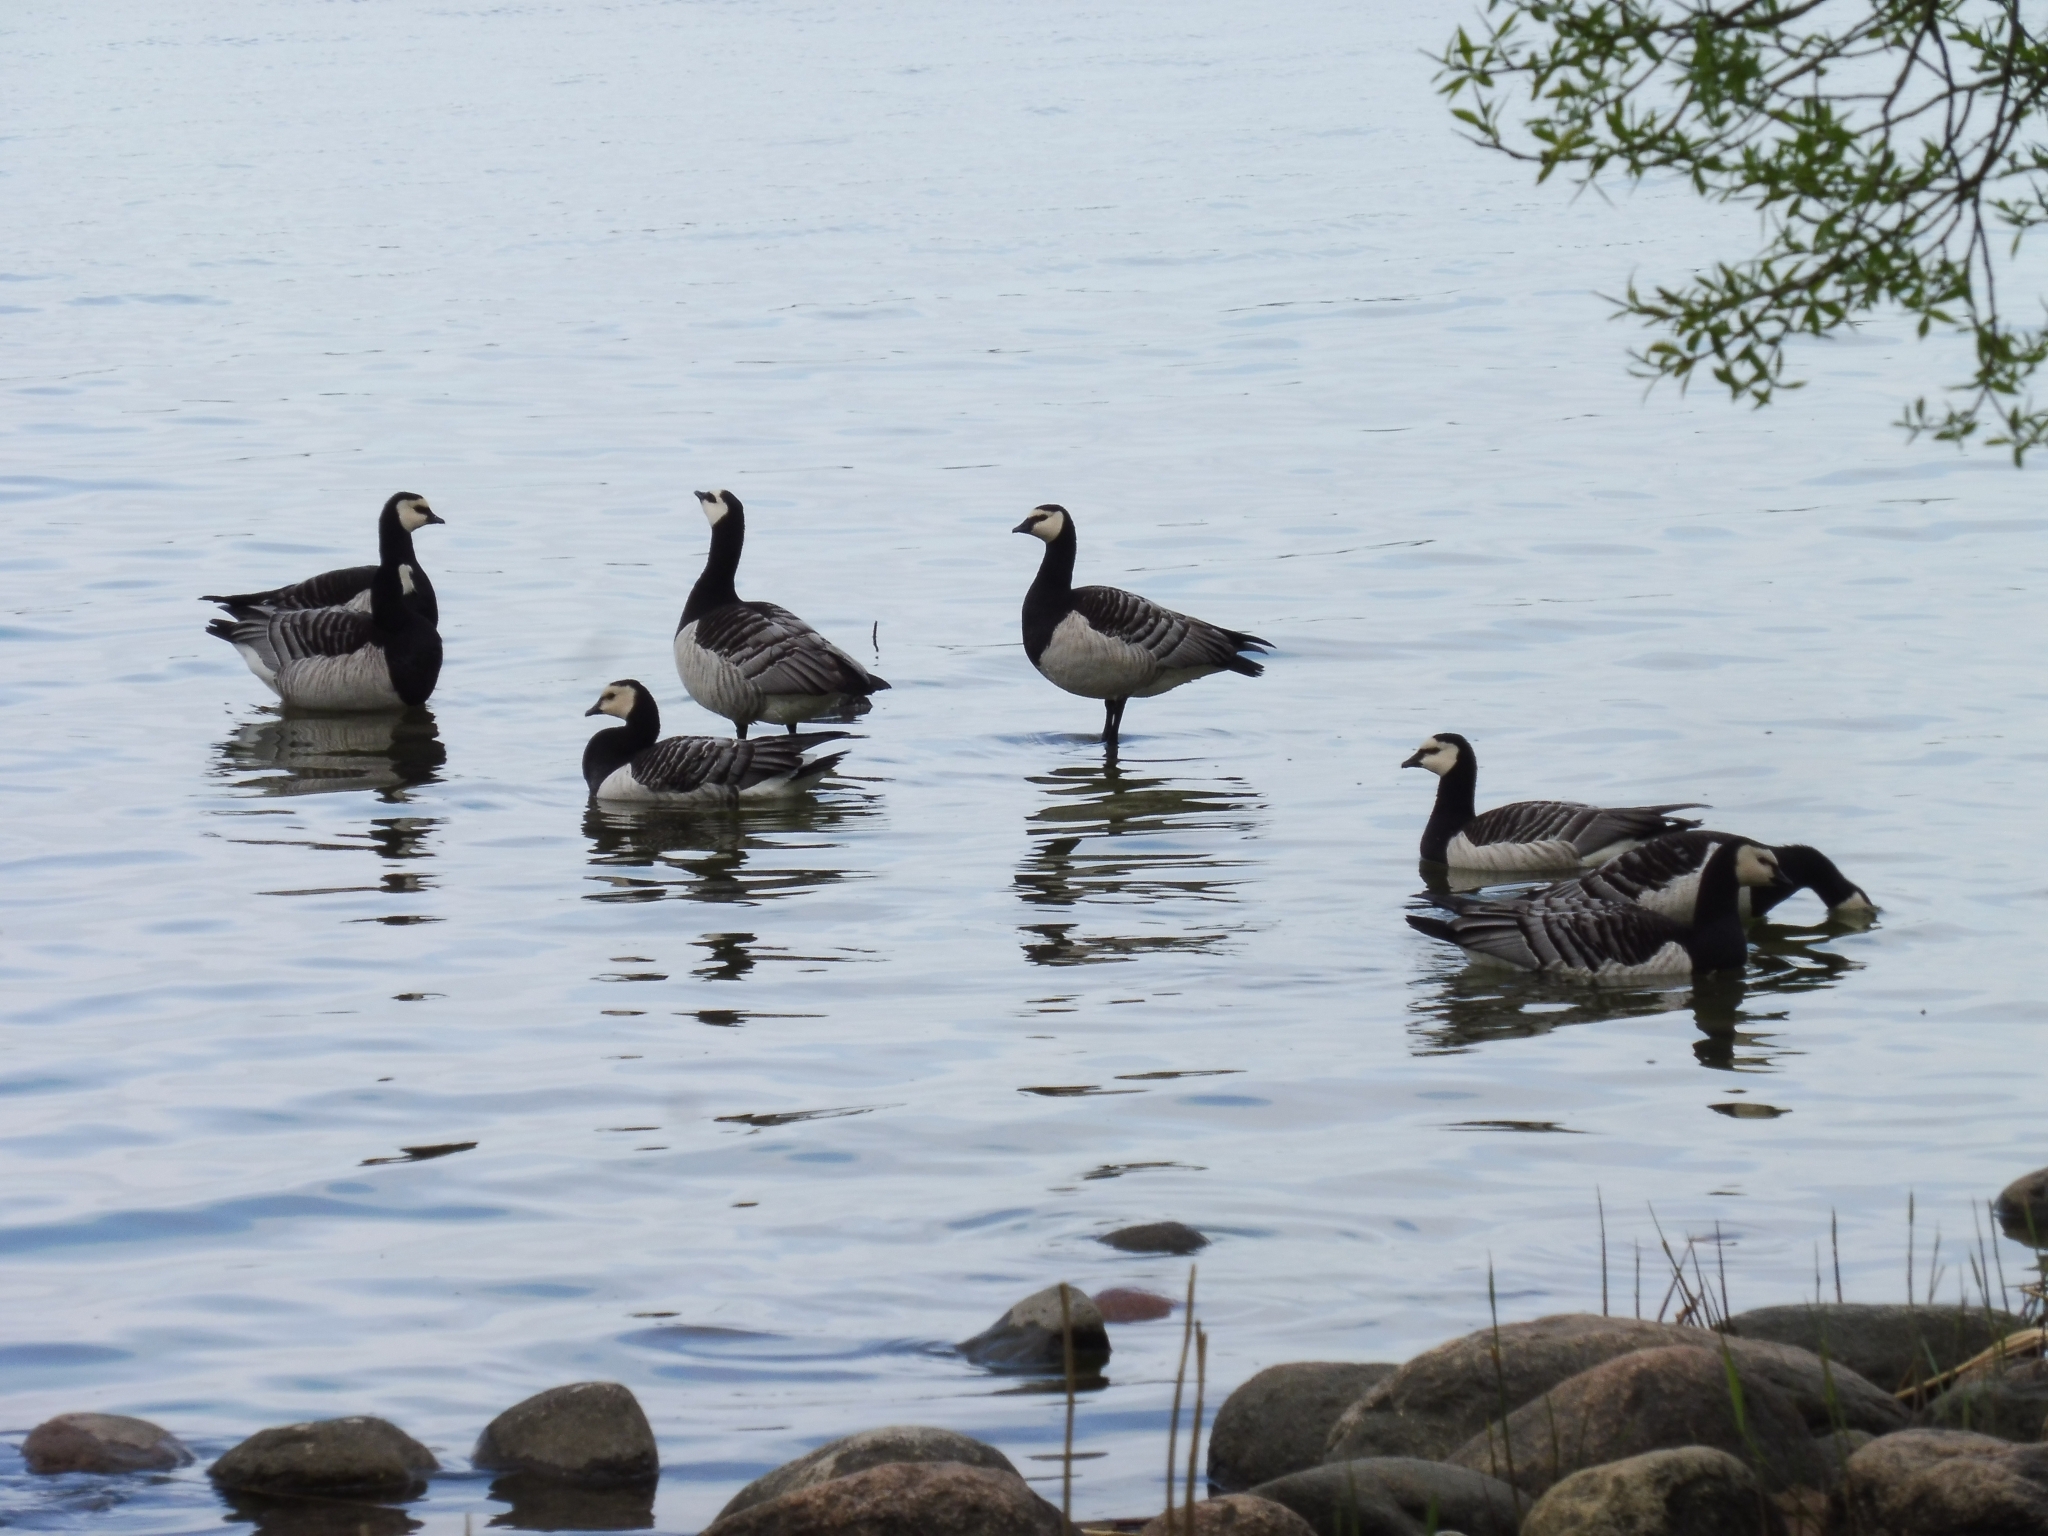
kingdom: Animalia
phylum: Chordata
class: Aves
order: Anseriformes
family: Anatidae
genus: Branta
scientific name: Branta leucopsis
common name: Barnacle goose
